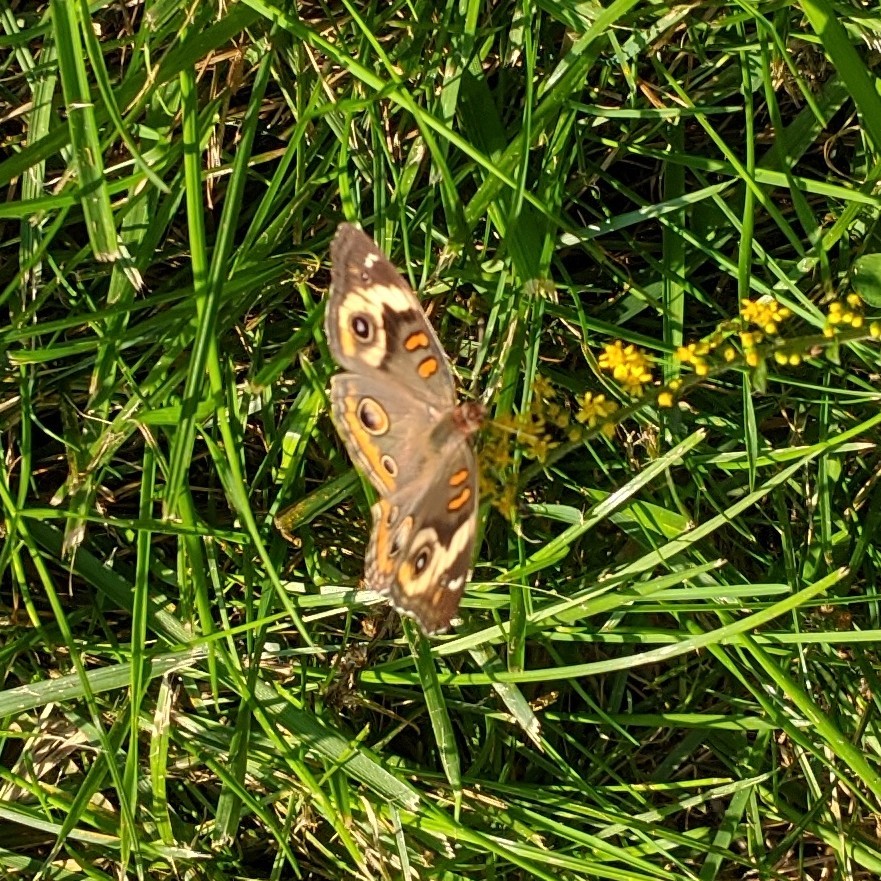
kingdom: Animalia
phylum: Arthropoda
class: Insecta
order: Lepidoptera
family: Nymphalidae
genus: Junonia
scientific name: Junonia coenia
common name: Common buckeye
